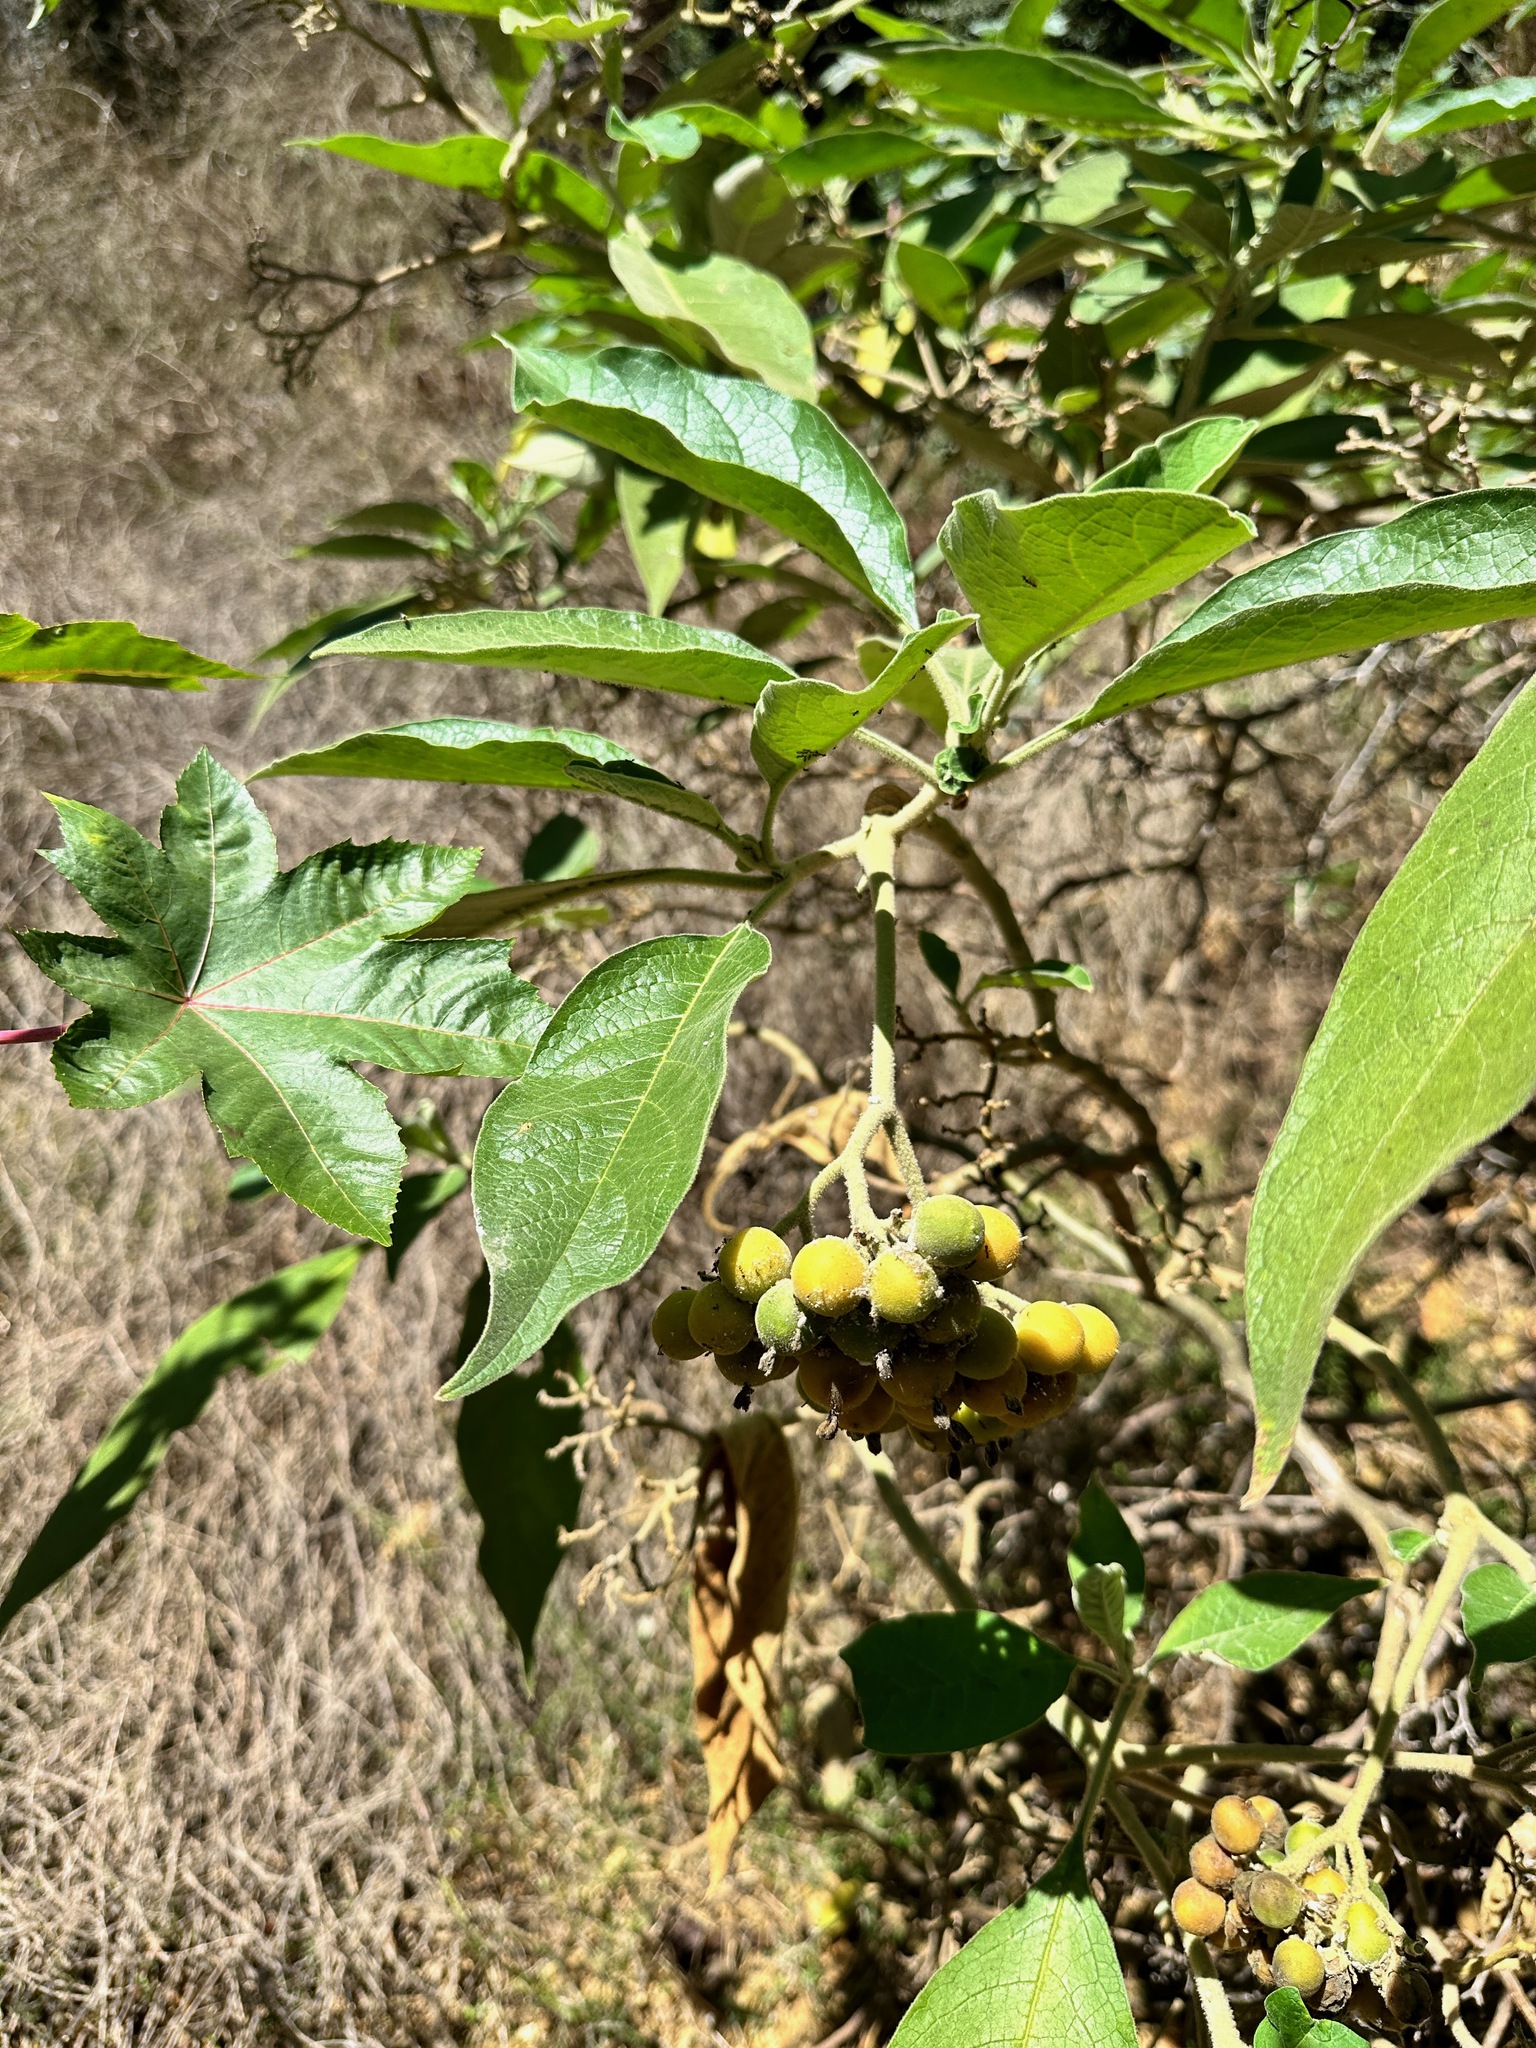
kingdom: Plantae
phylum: Tracheophyta
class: Magnoliopsida
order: Solanales
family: Solanaceae
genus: Solanum
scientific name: Solanum mauritianum
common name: Earleaf nightshade
